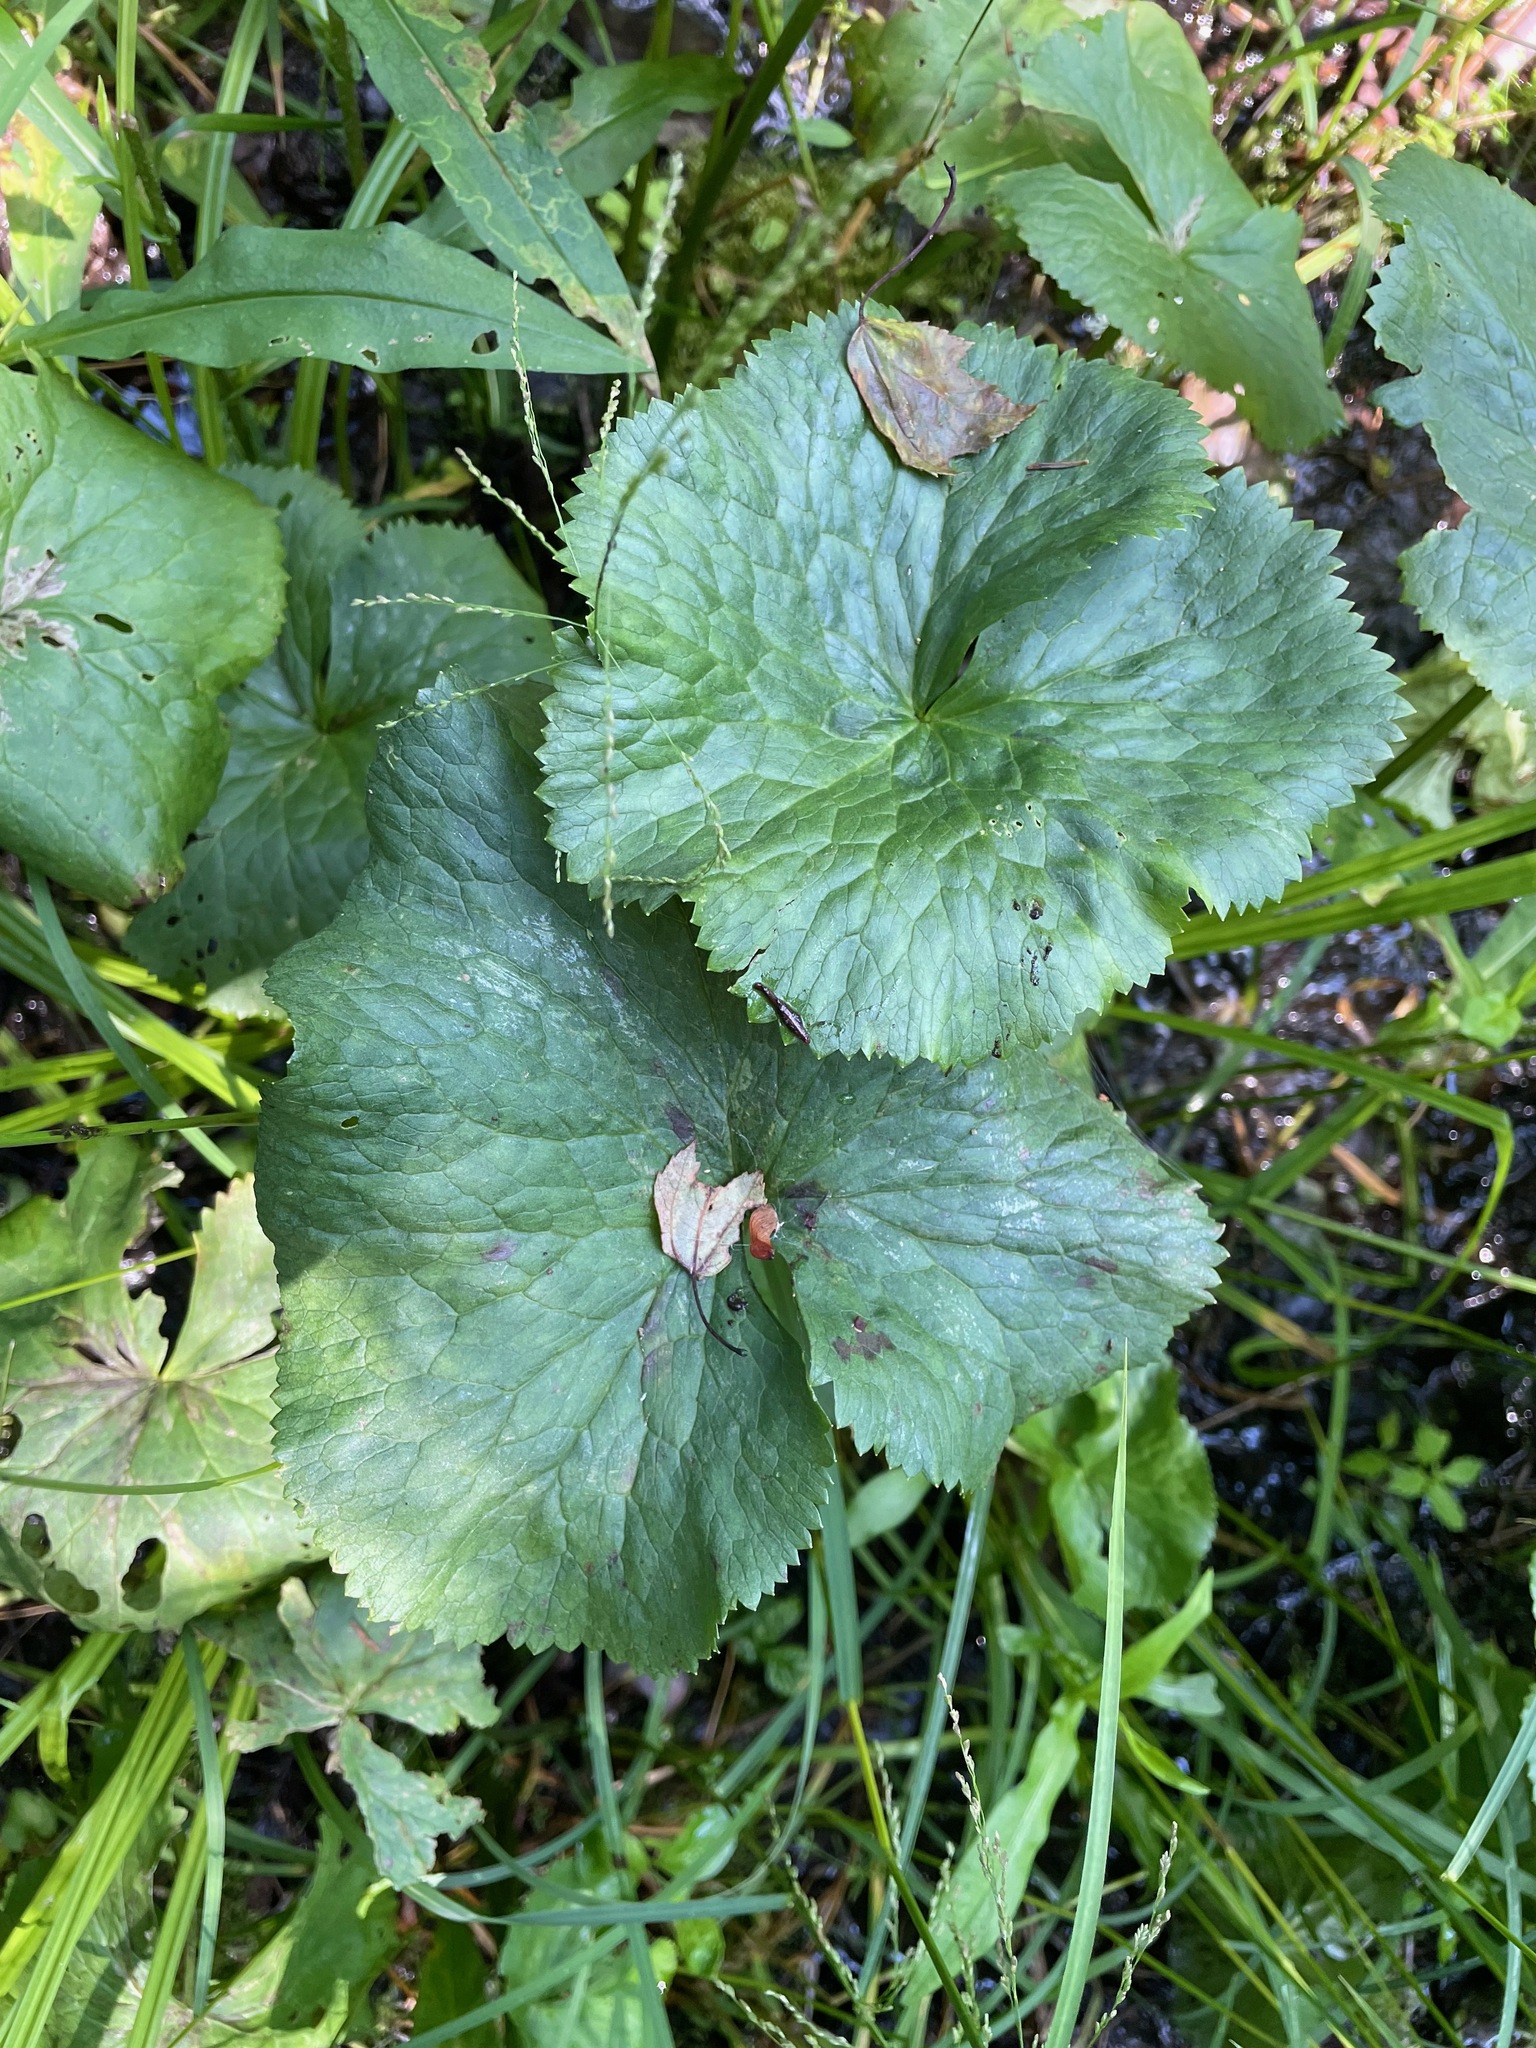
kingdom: Plantae
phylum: Tracheophyta
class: Magnoliopsida
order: Ranunculales
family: Ranunculaceae
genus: Caltha
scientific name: Caltha palustris
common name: Marsh marigold
